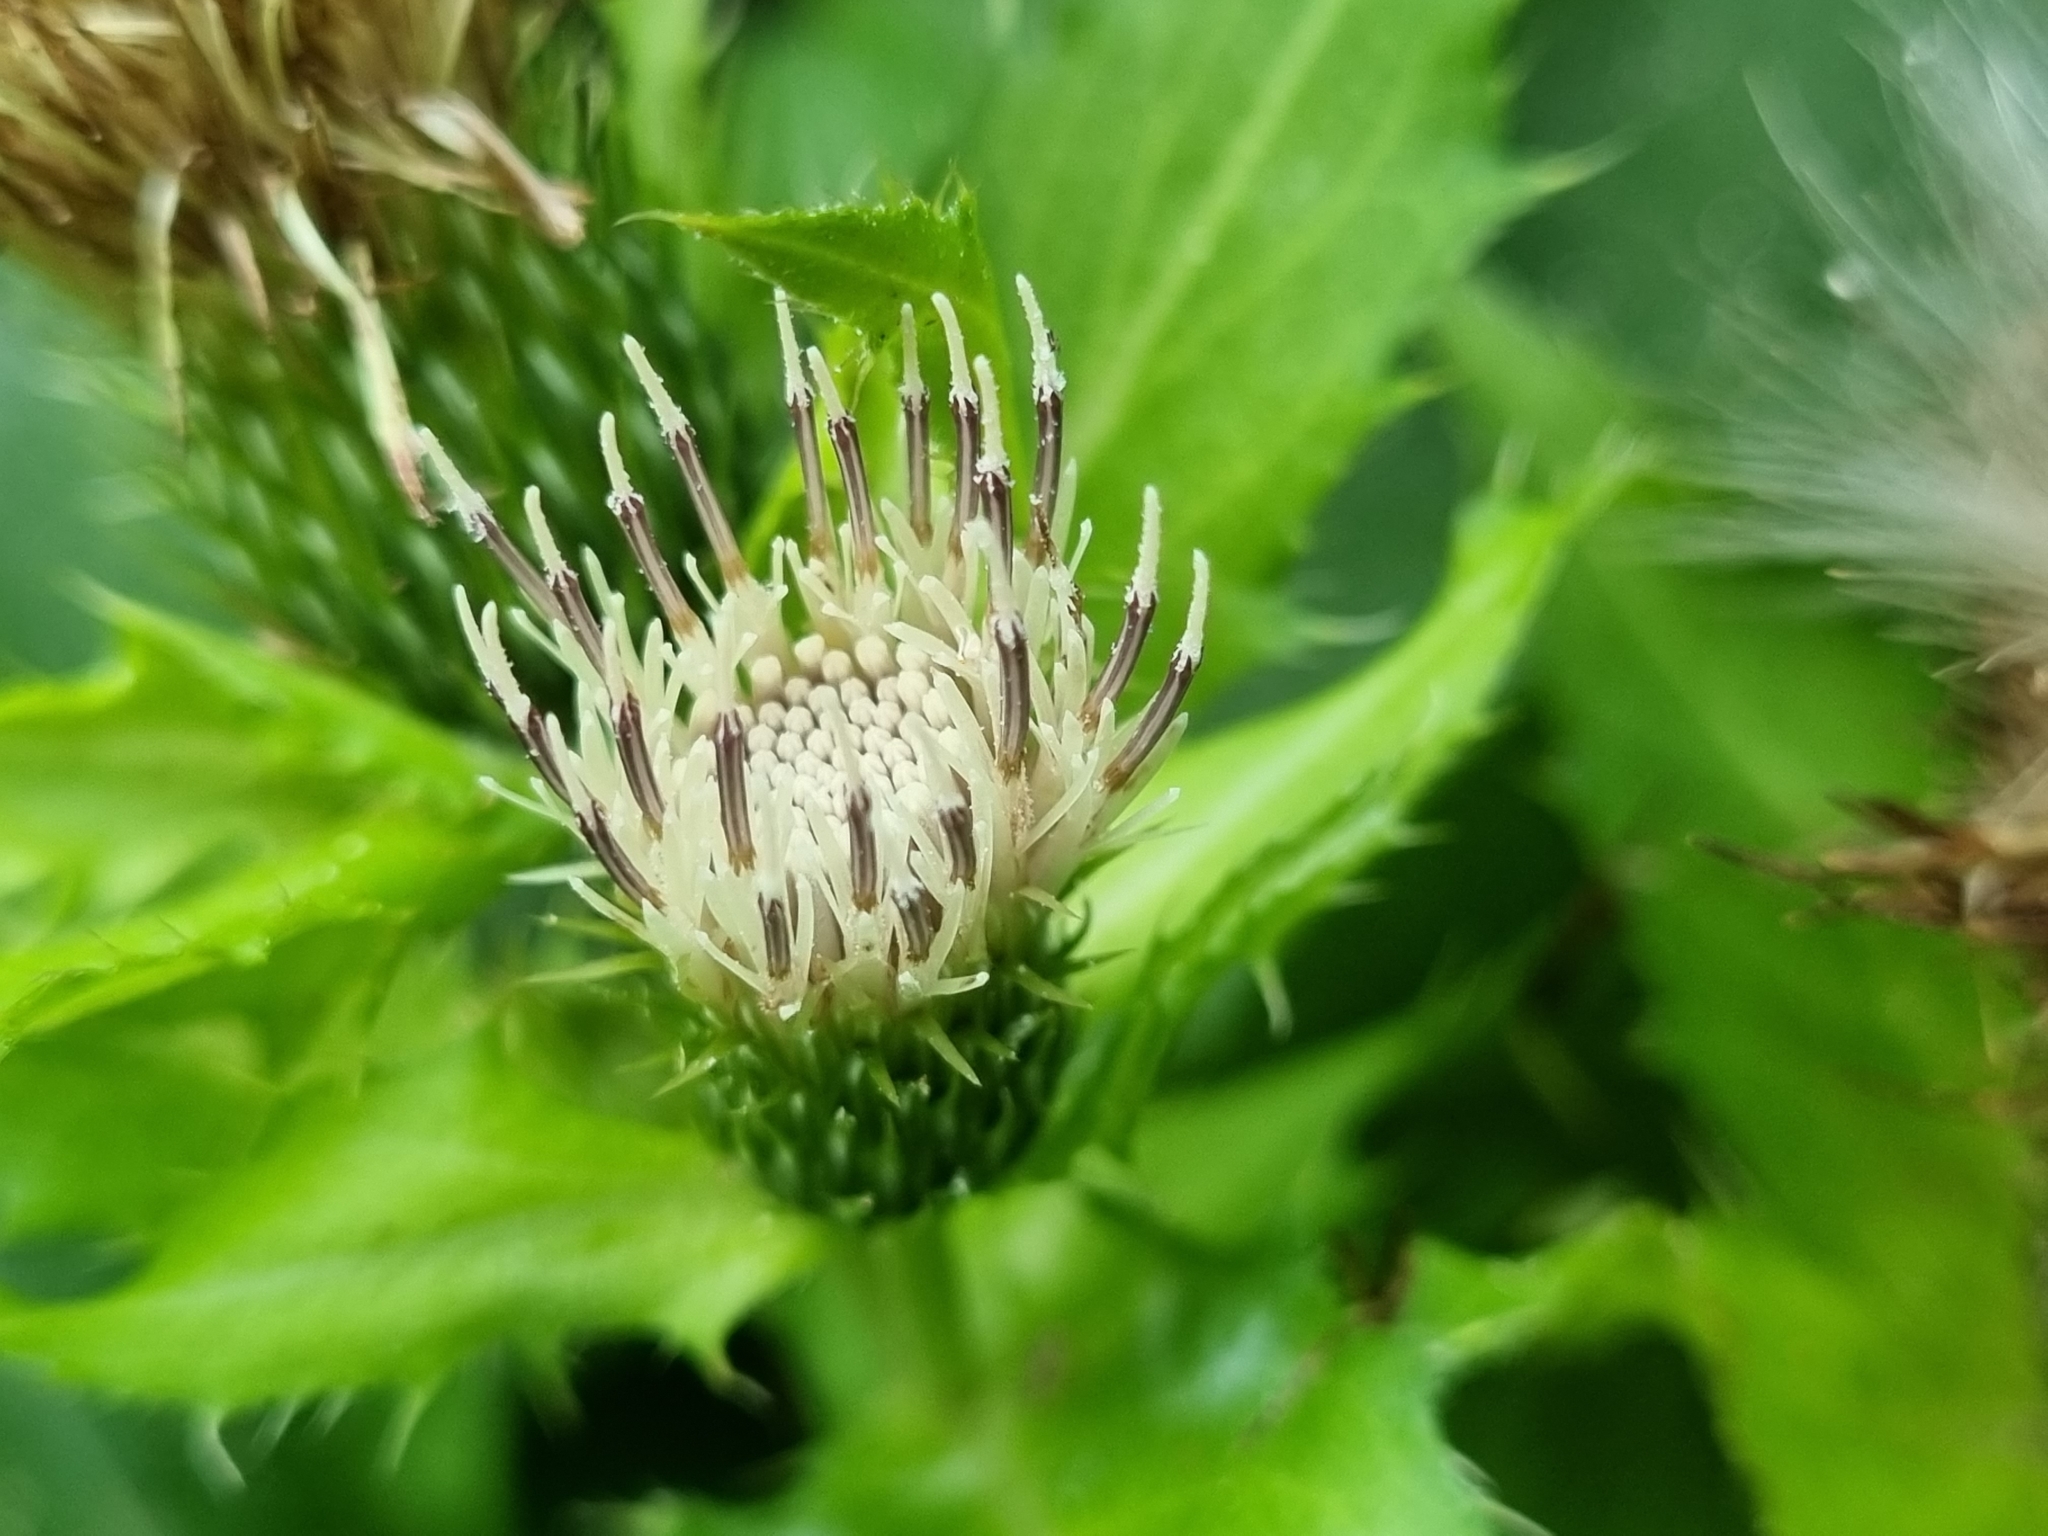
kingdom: Plantae
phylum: Tracheophyta
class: Magnoliopsida
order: Asterales
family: Asteraceae
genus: Cirsium
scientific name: Cirsium oleraceum
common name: Cabbage thistle
